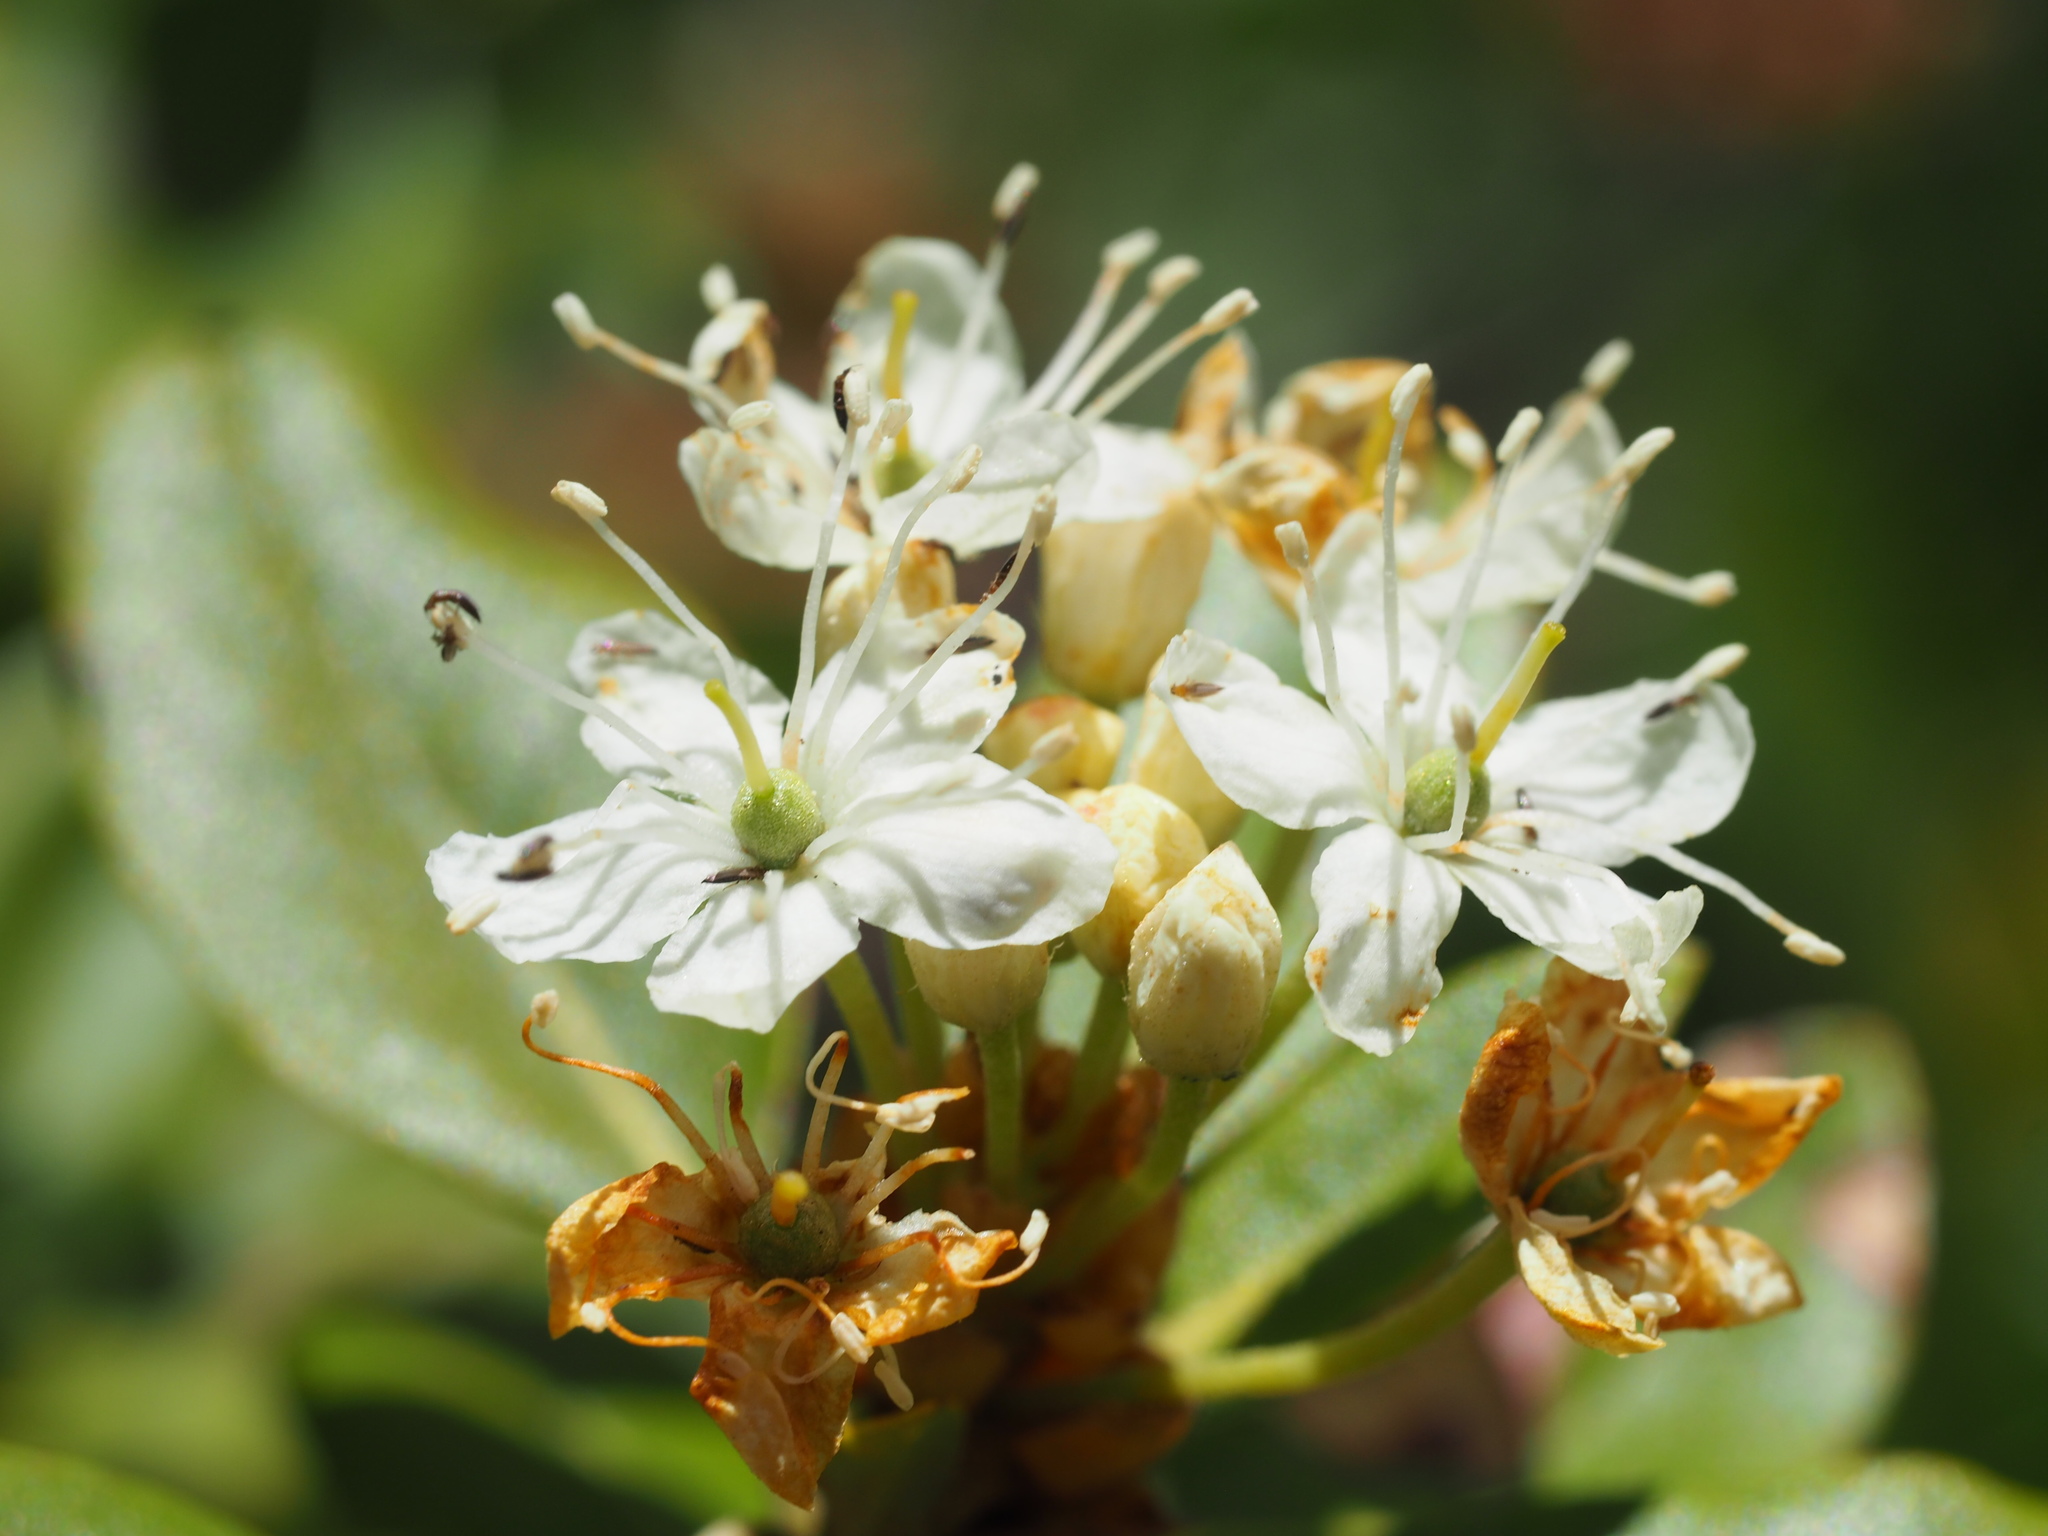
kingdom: Plantae
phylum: Tracheophyta
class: Magnoliopsida
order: Ericales
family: Ericaceae
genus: Rhododendron
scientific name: Rhododendron columbianum
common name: Western labrador tea
